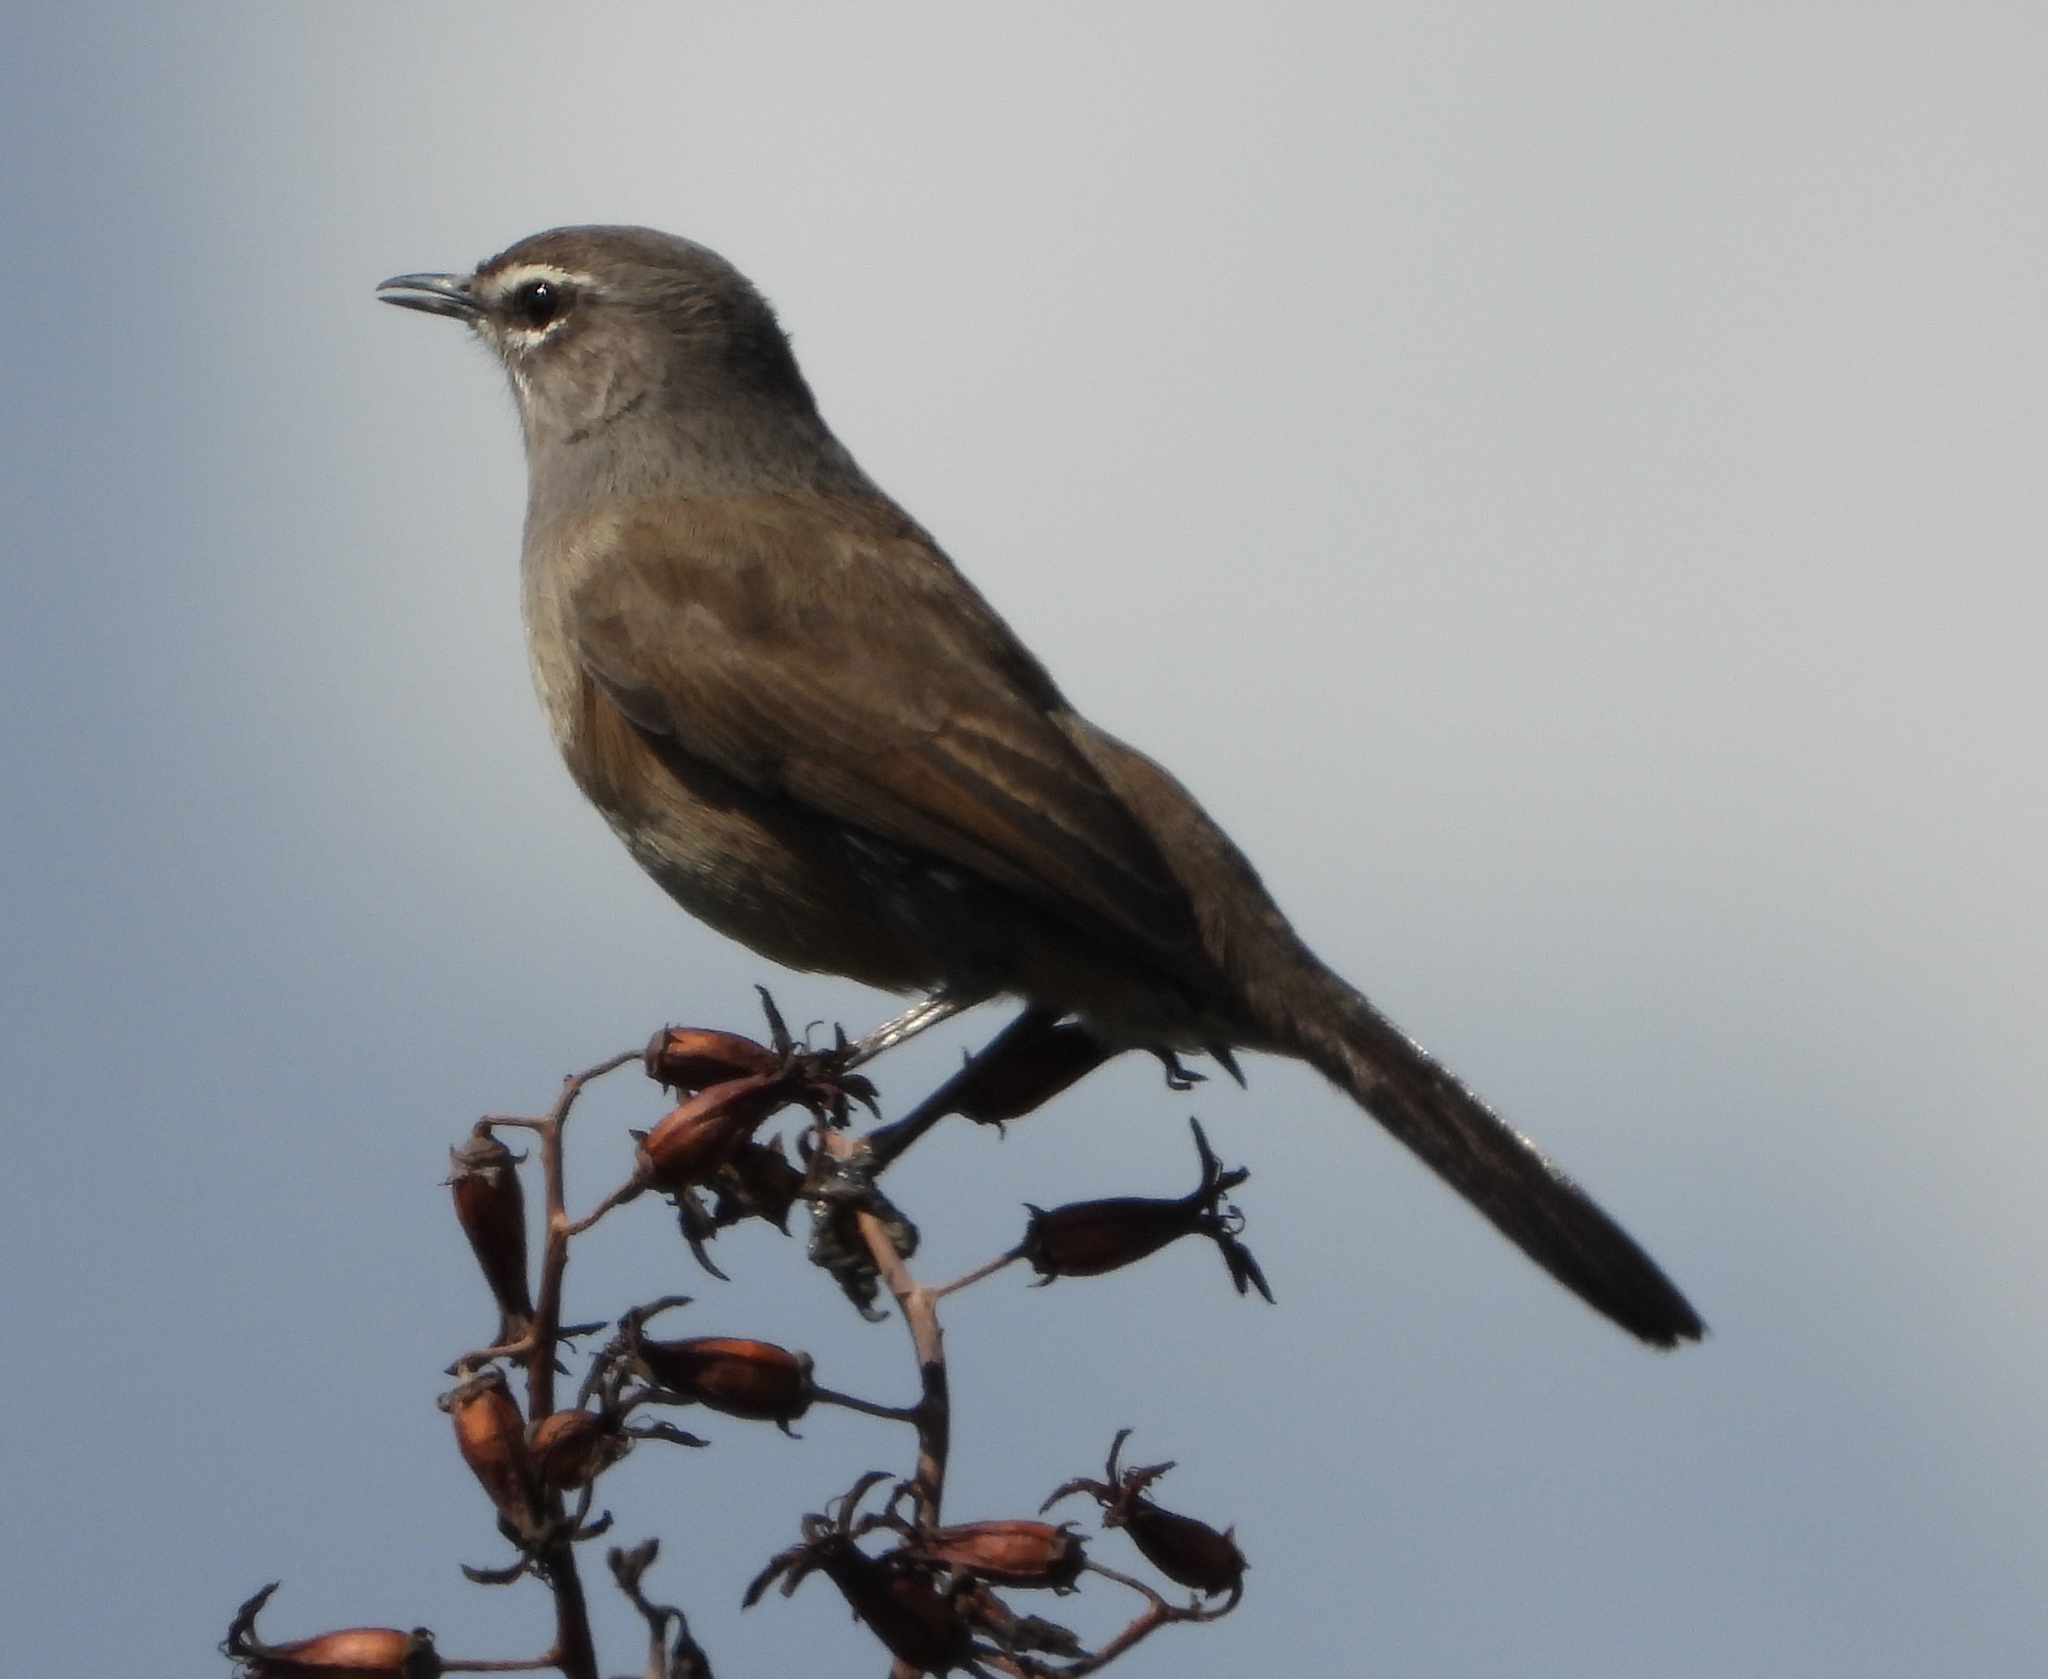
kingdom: Animalia
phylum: Chordata
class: Aves
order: Passeriformes
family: Muscicapidae
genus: Erythropygia
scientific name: Erythropygia coryphoeus
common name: Karoo scrub robin
